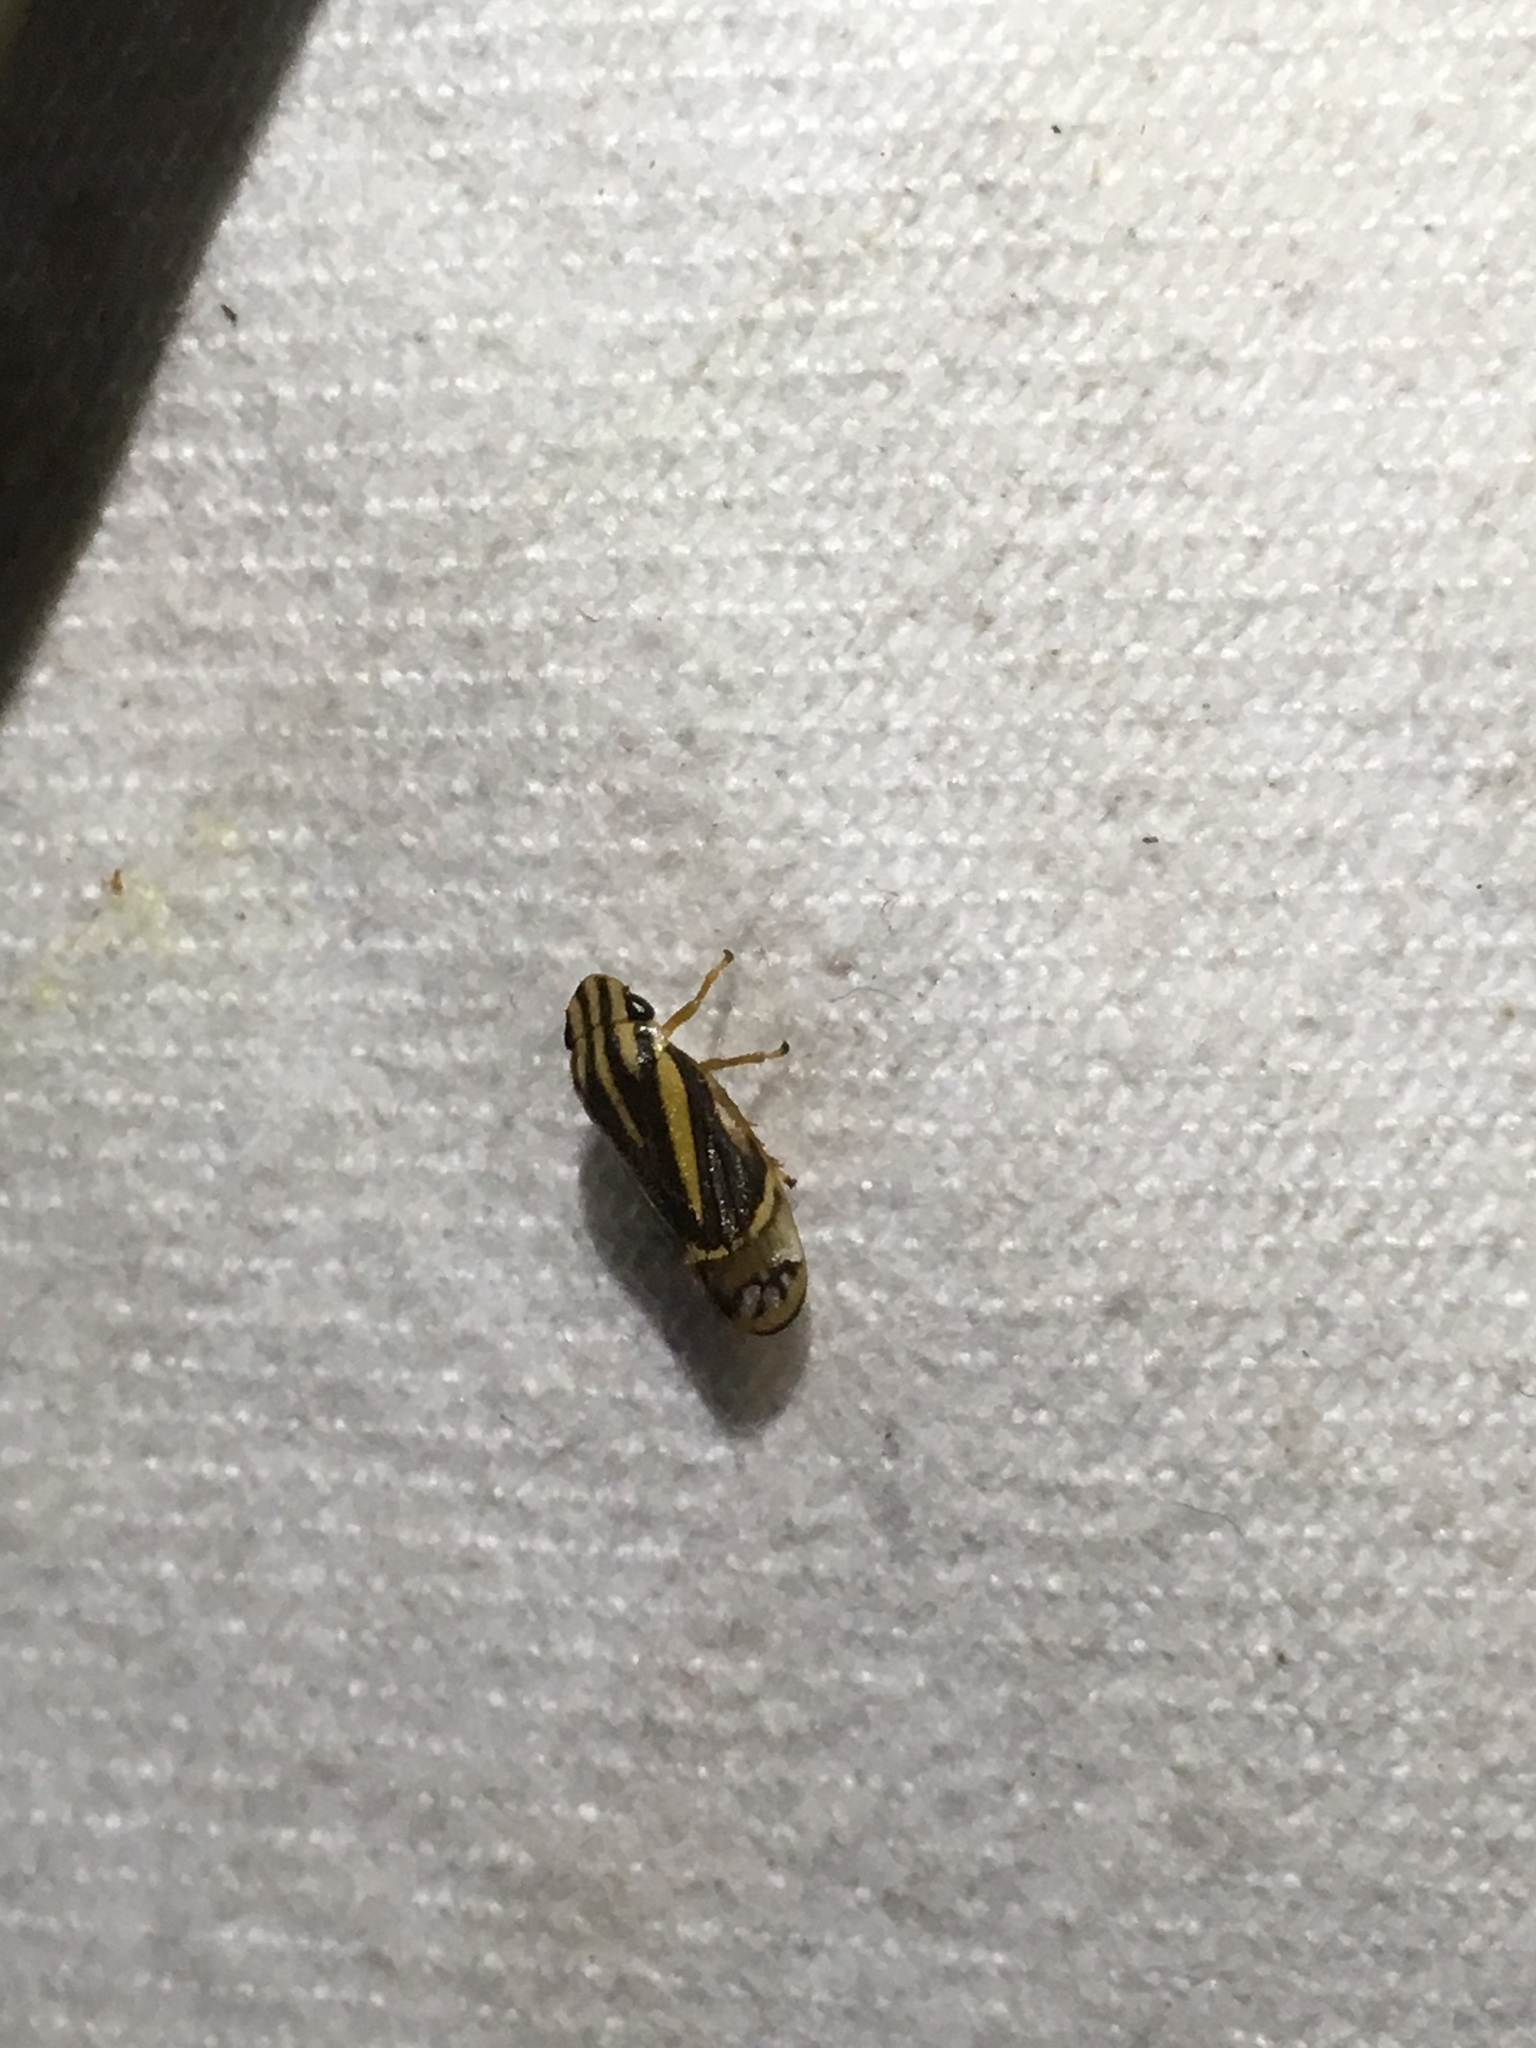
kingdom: Animalia
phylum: Arthropoda
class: Insecta
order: Hemiptera
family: Cercopidae
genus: Microsargane
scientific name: Microsargane martialis
